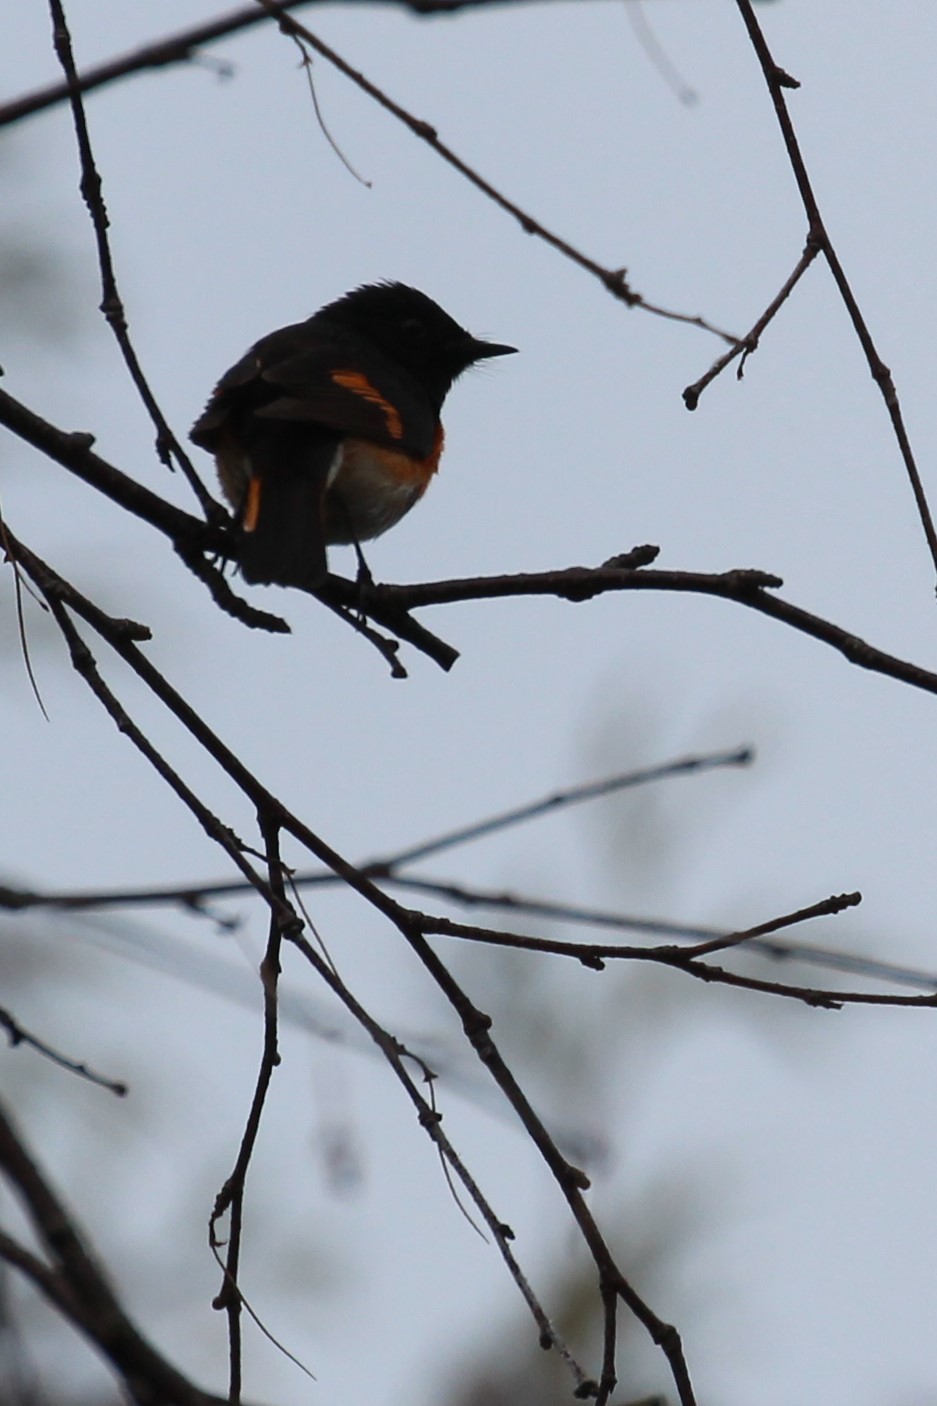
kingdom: Animalia
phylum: Chordata
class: Aves
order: Passeriformes
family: Parulidae
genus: Setophaga
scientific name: Setophaga ruticilla
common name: American redstart
